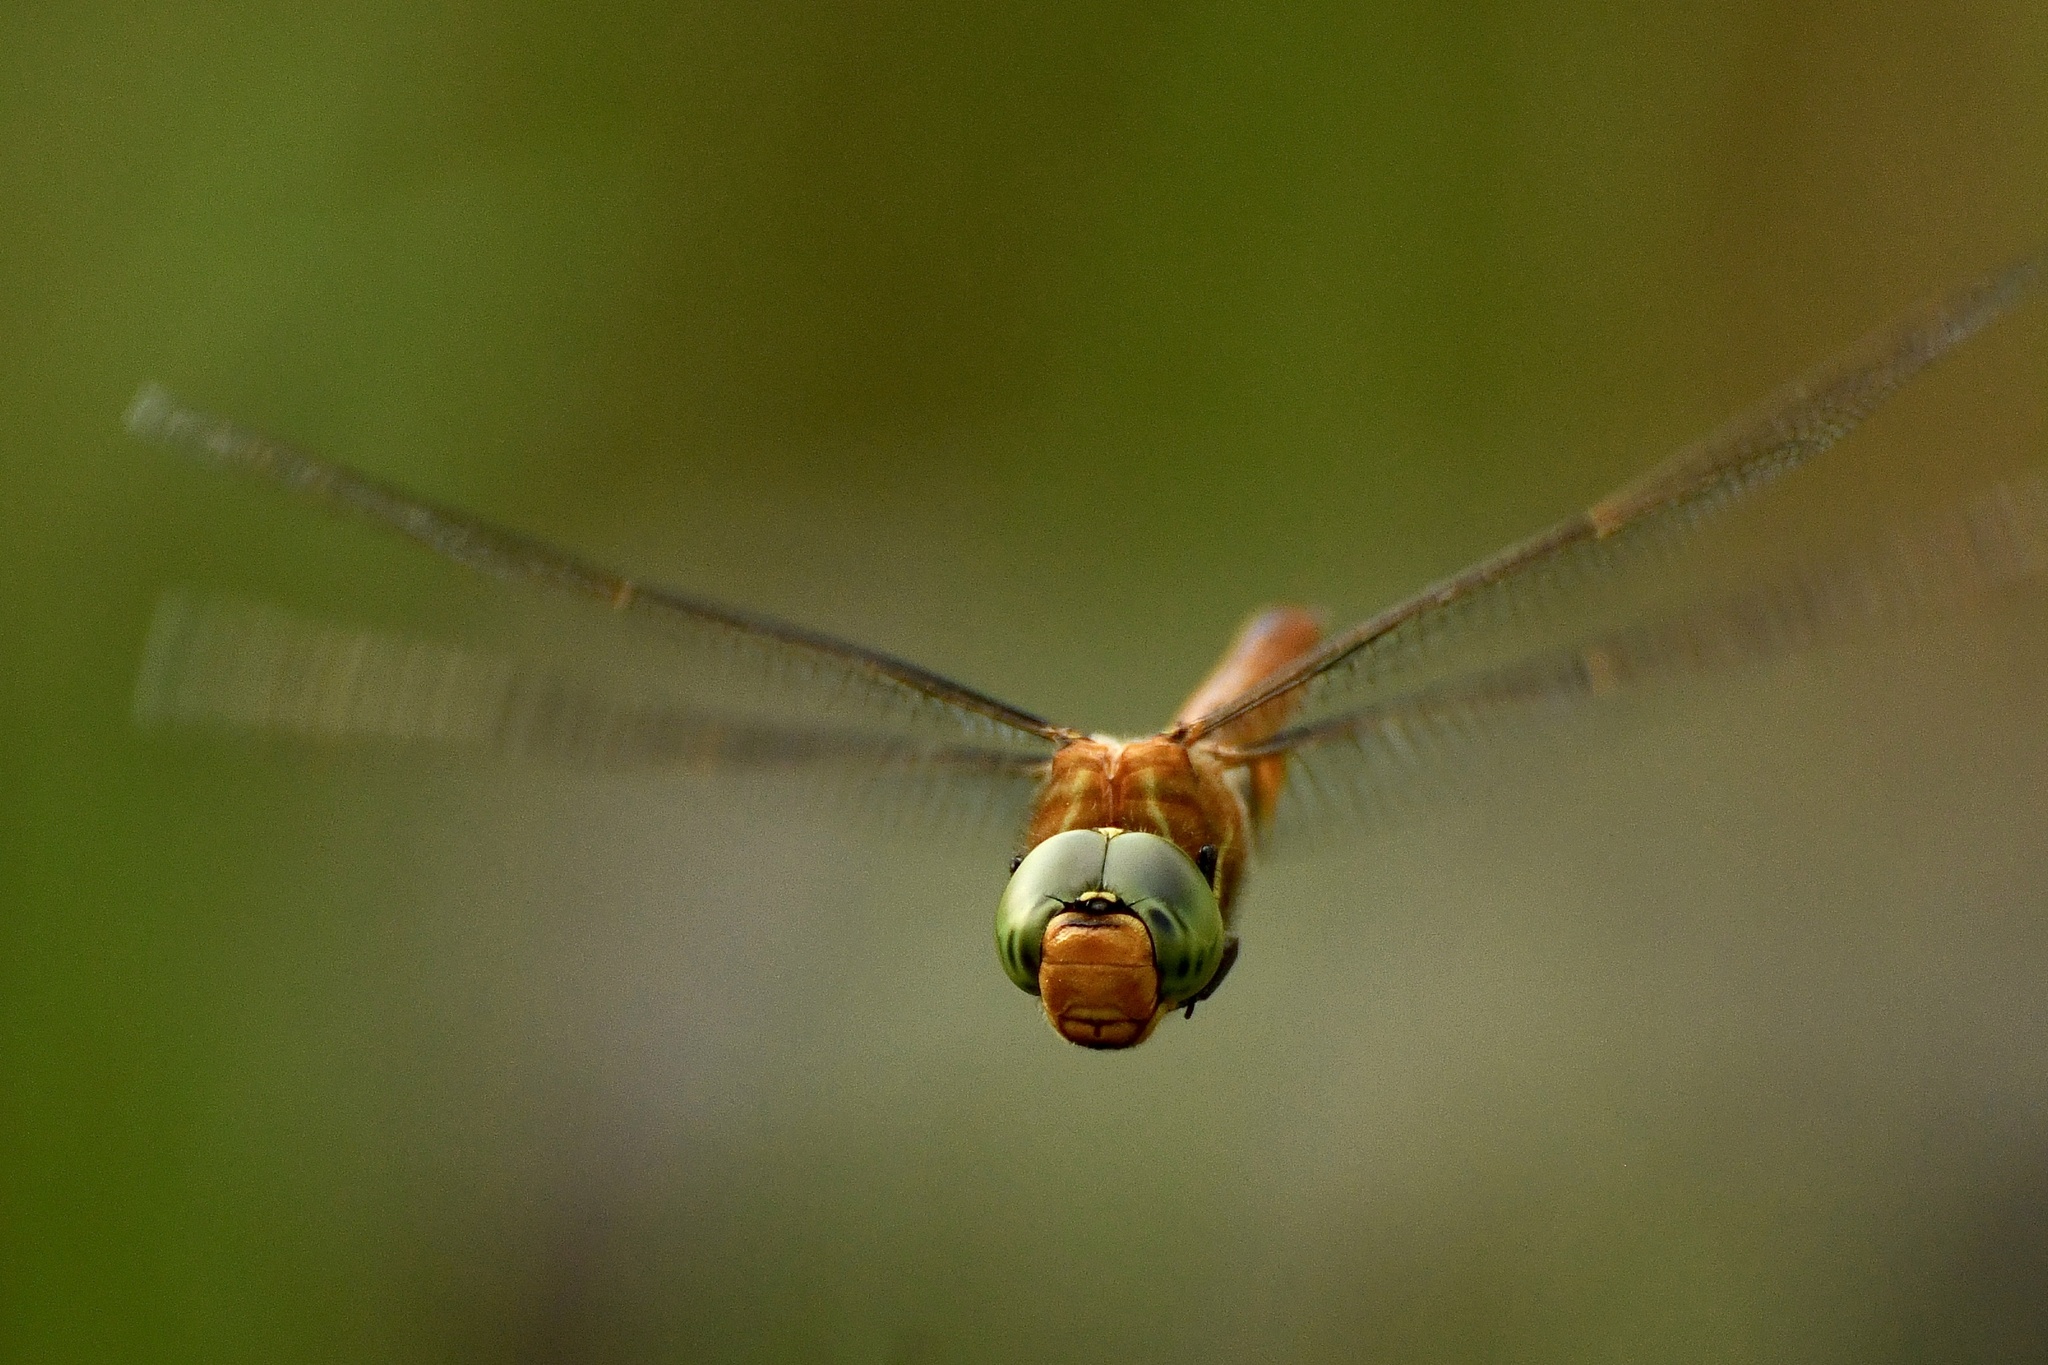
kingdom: Animalia
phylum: Arthropoda
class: Insecta
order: Odonata
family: Aeshnidae
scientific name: Aeshnidae
